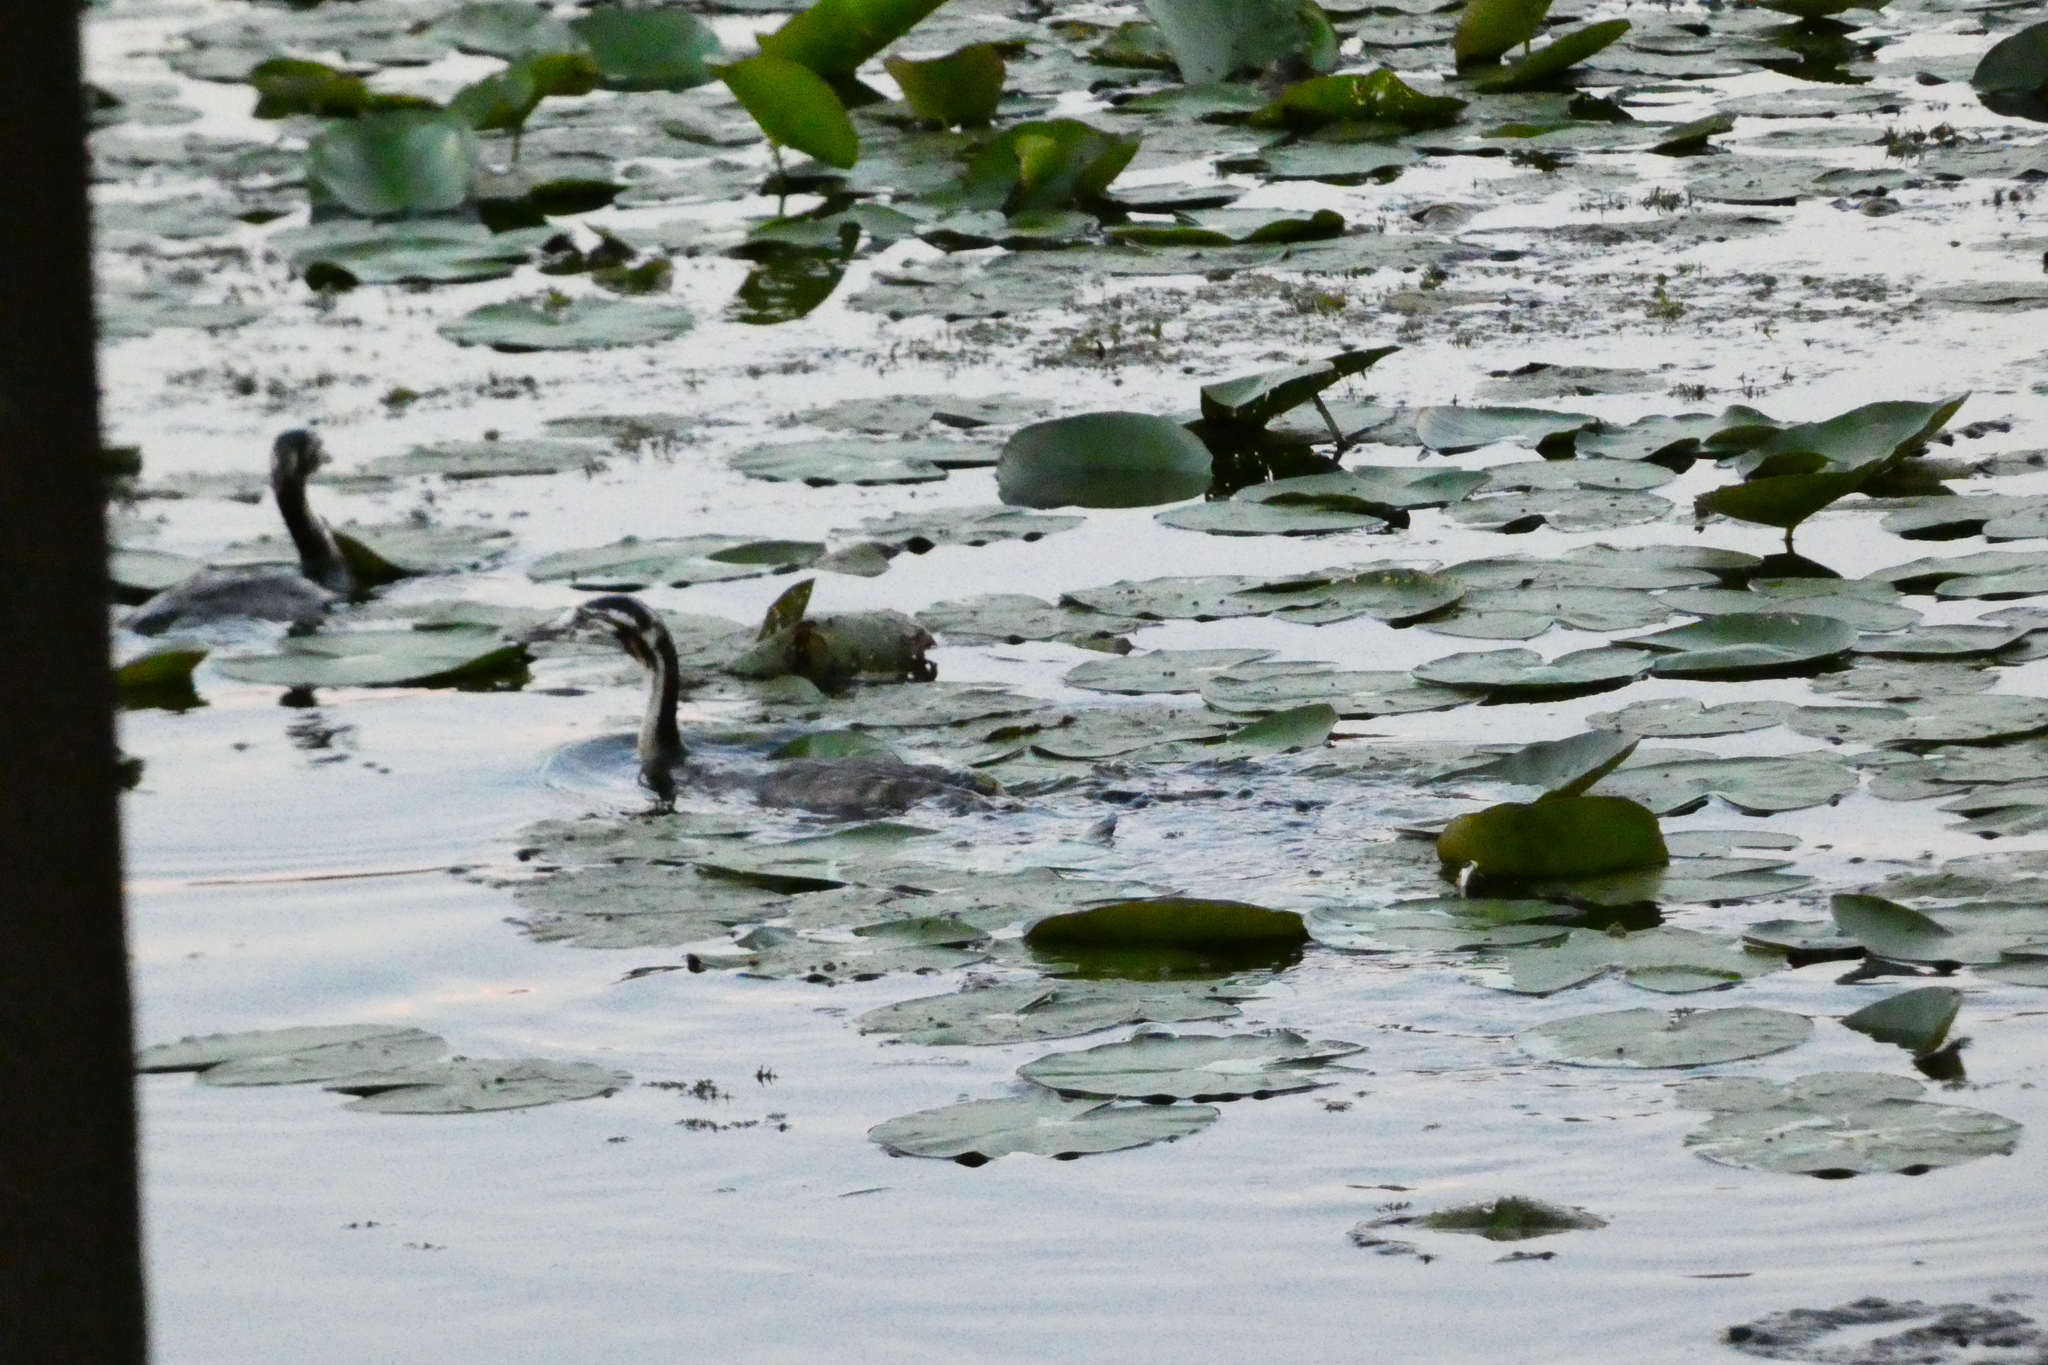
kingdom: Animalia
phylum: Chordata
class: Aves
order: Podicipediformes
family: Podicipedidae
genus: Podiceps
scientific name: Podiceps cristatus
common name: Great crested grebe
